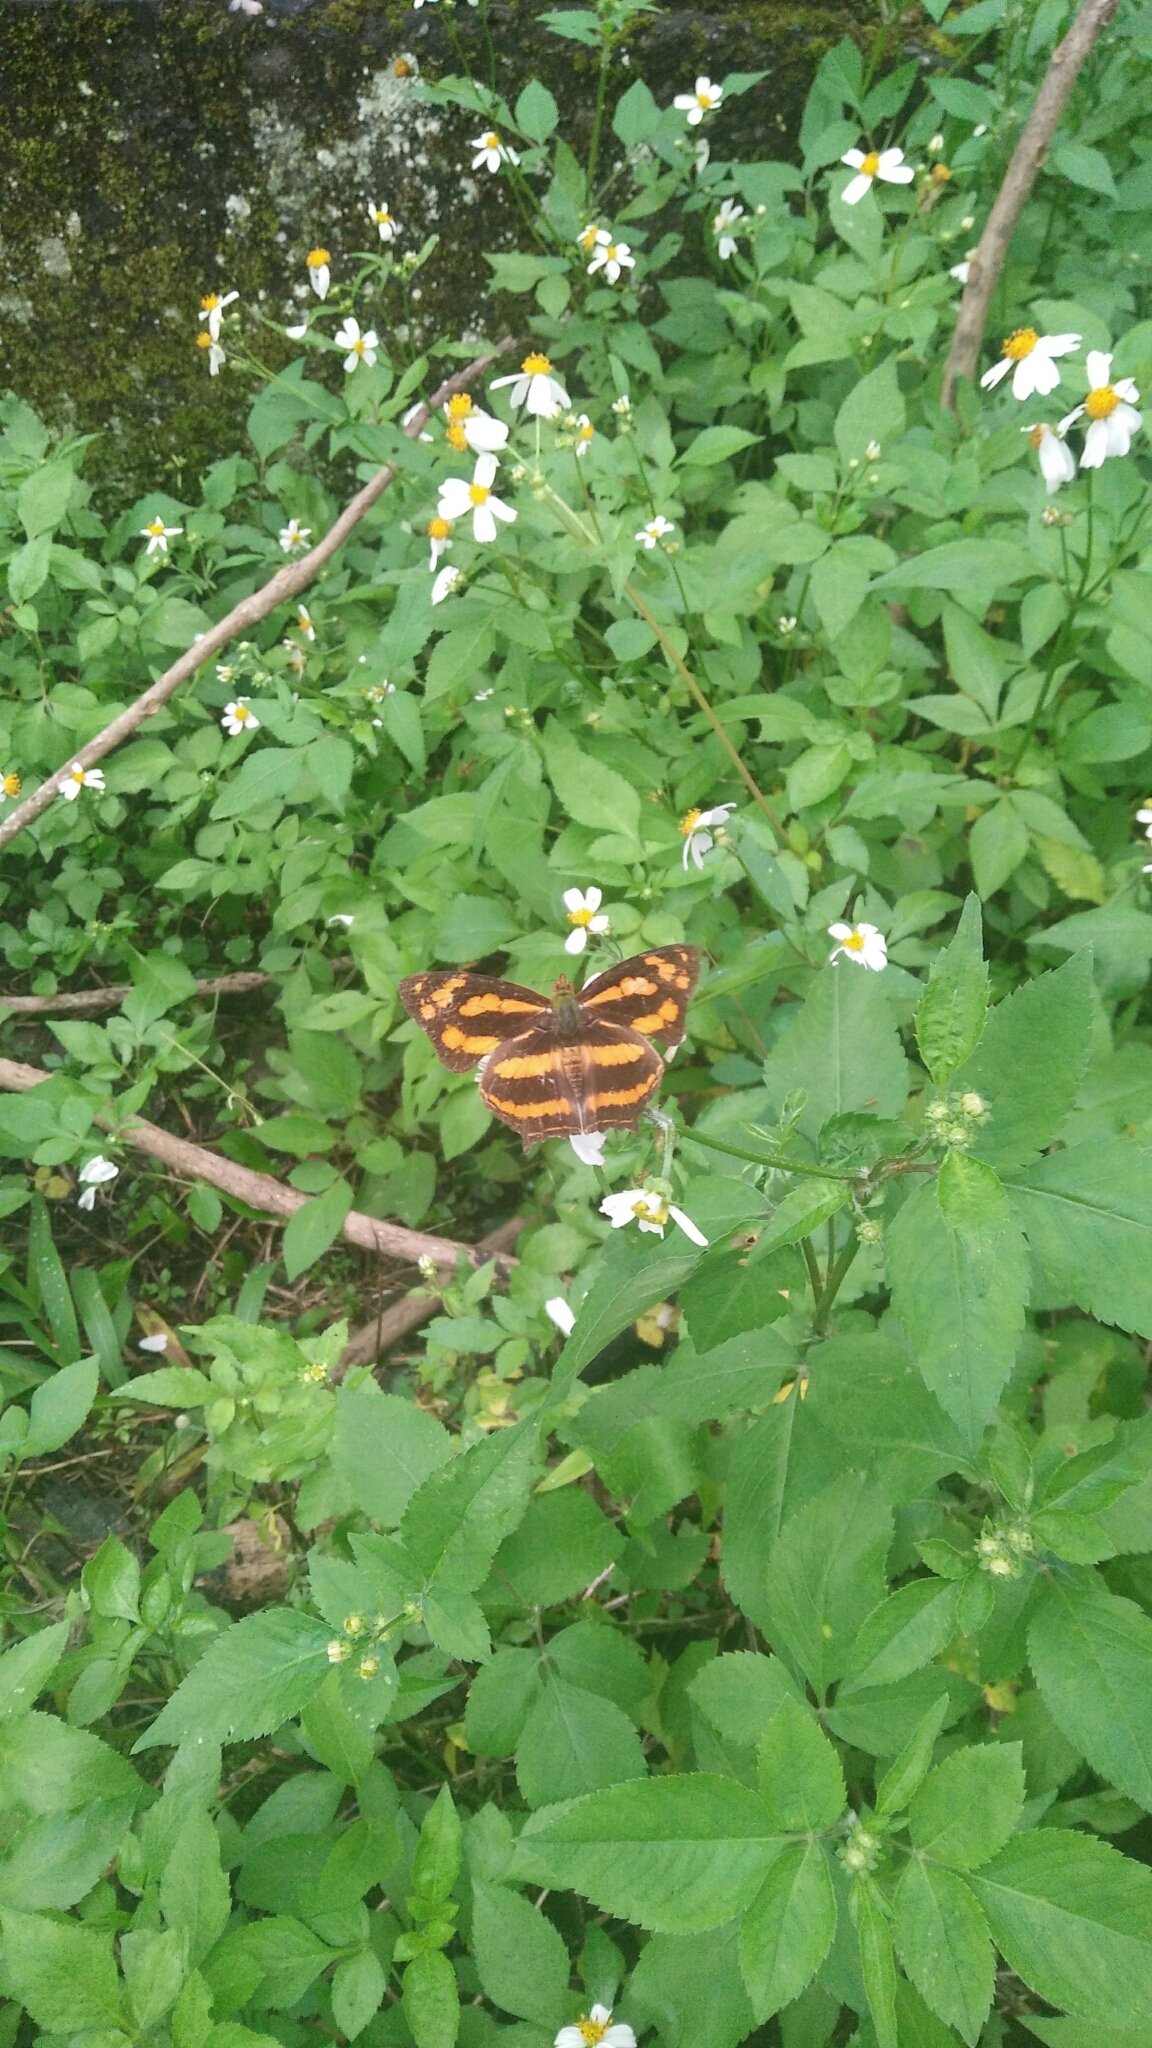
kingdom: Animalia
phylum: Arthropoda
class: Insecta
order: Lepidoptera
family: Nymphalidae
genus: Symbrenthia
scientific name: Symbrenthia hypselis
